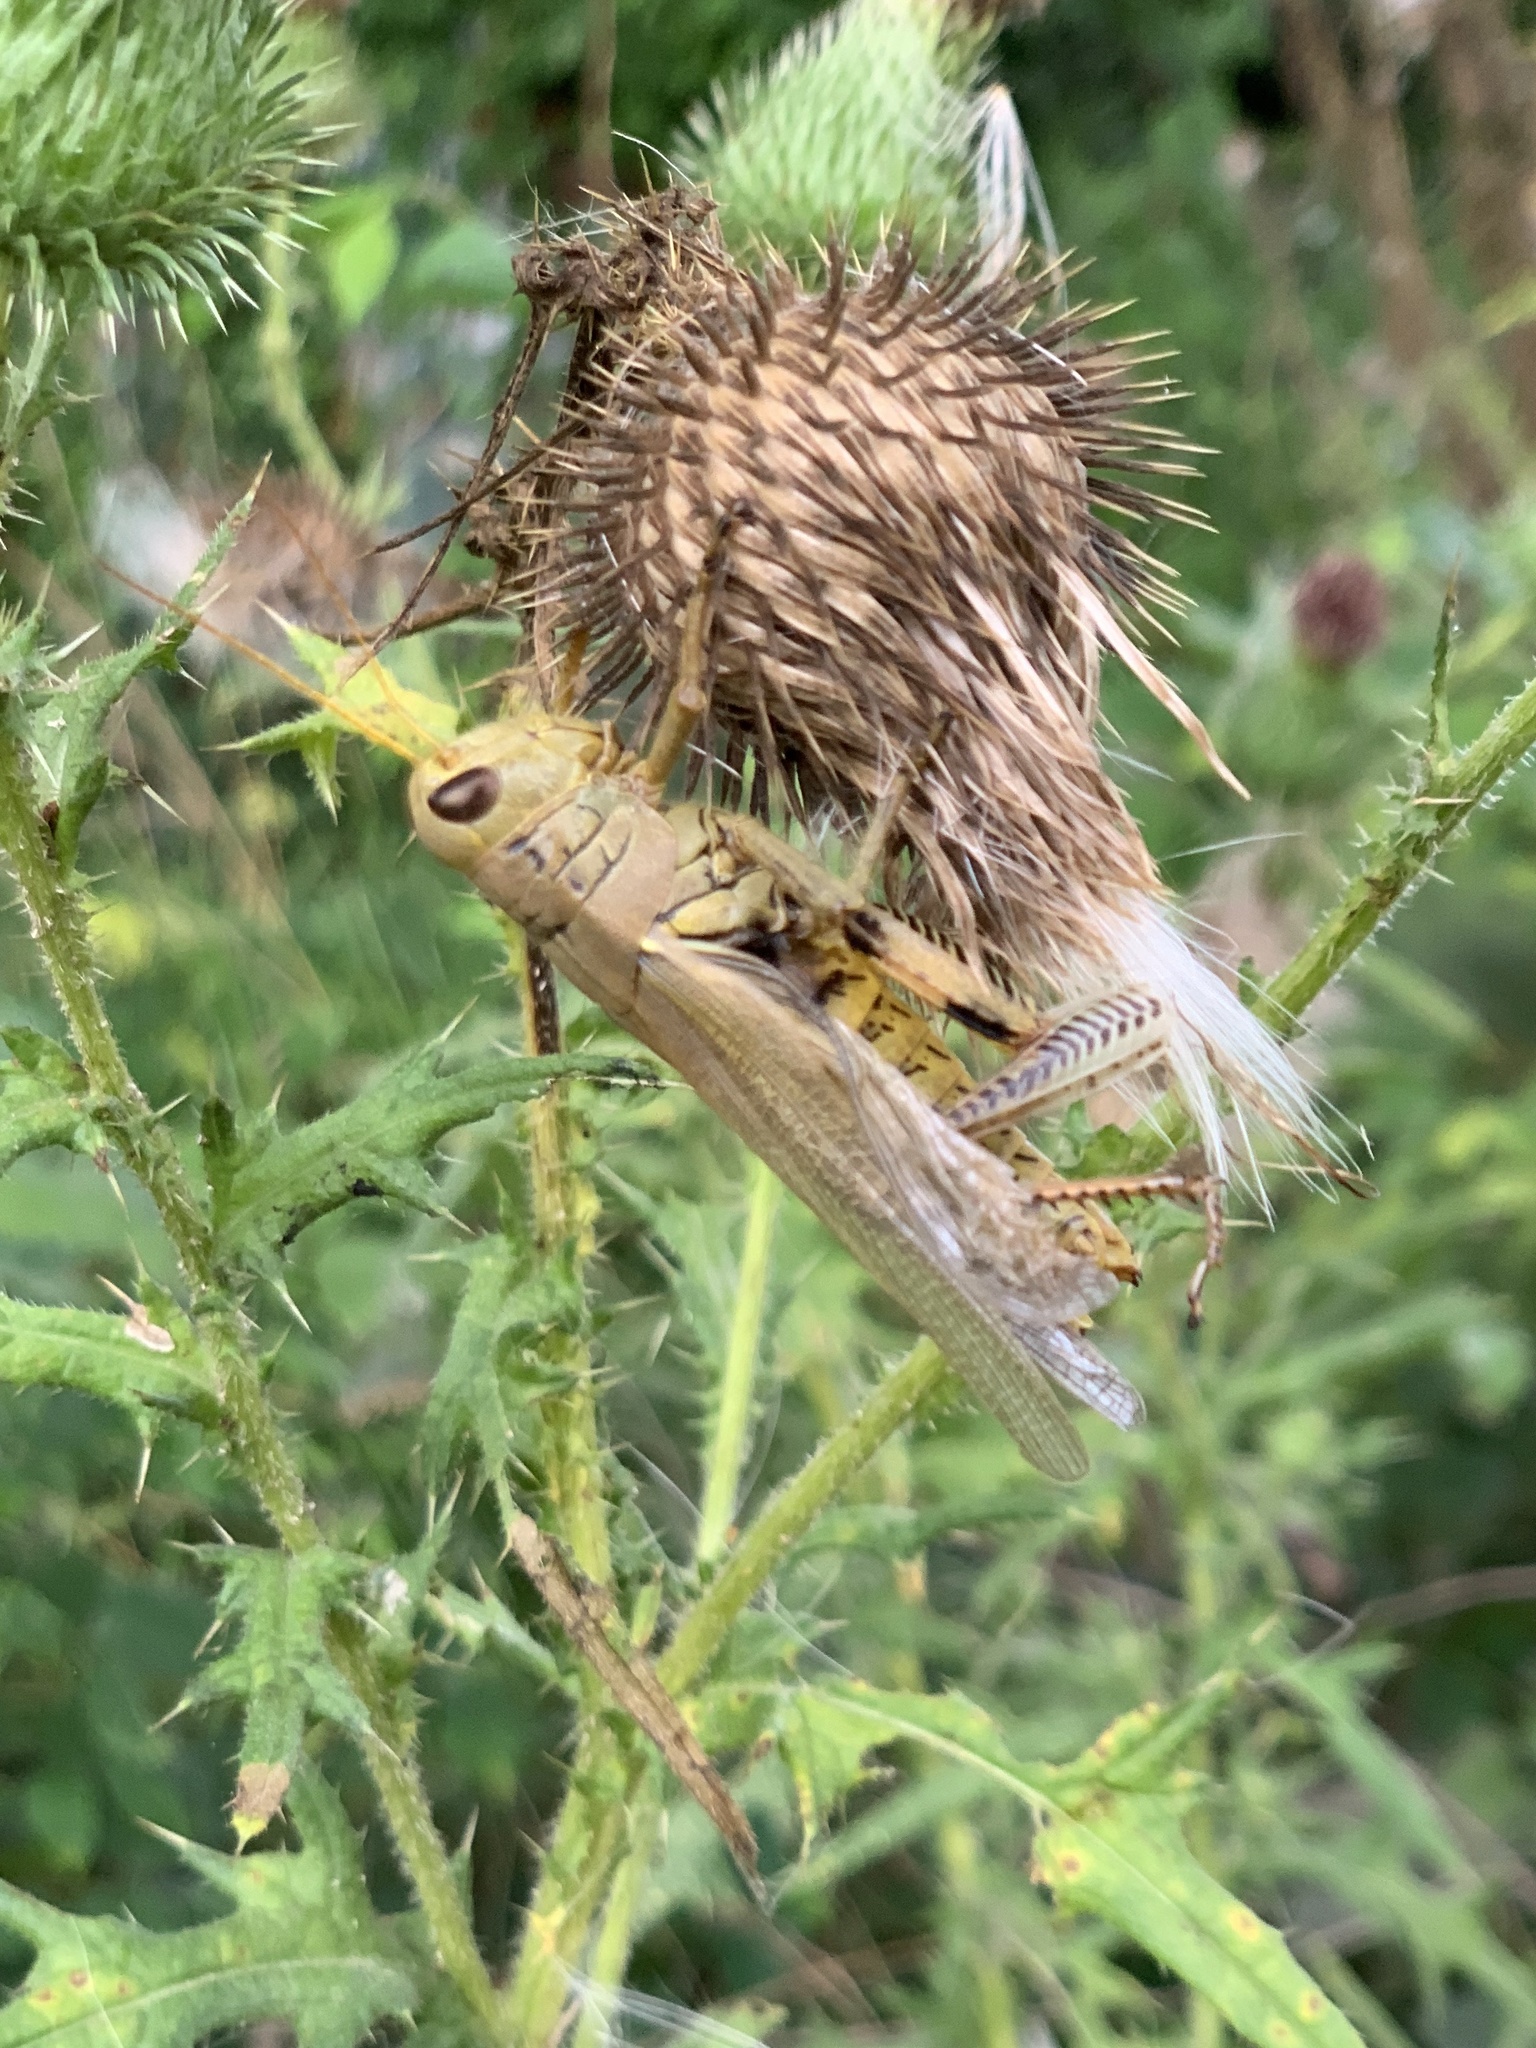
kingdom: Animalia
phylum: Arthropoda
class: Insecta
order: Orthoptera
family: Acrididae
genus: Melanoplus
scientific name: Melanoplus differentialis
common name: Differential grasshopper
